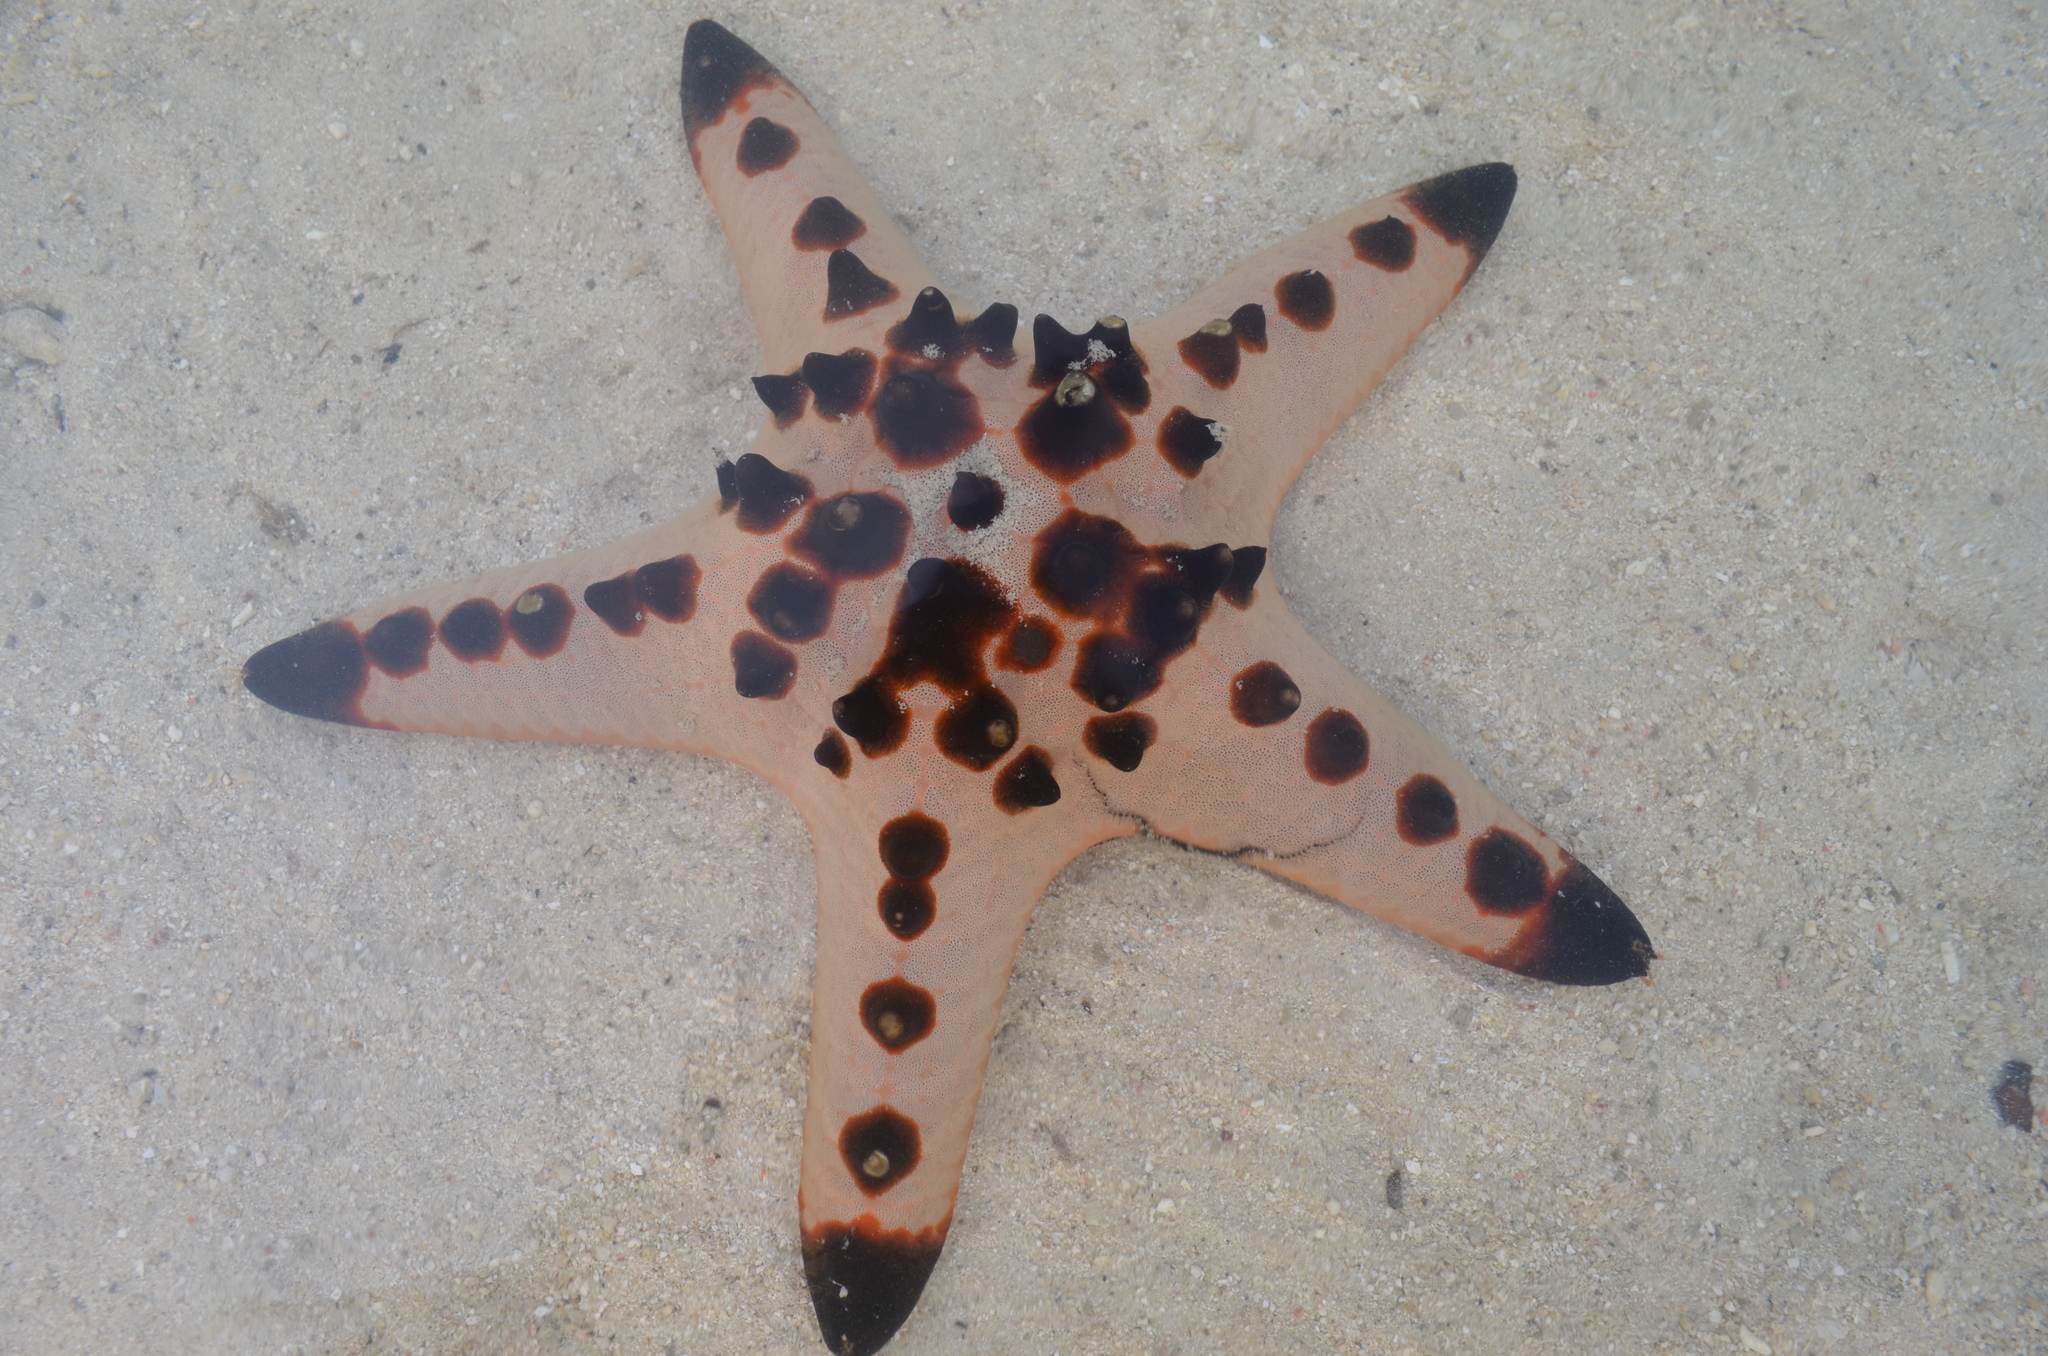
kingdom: Animalia
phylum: Echinodermata
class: Asteroidea
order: Valvatida
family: Oreasteridae
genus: Protoreaster
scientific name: Protoreaster nodosus
